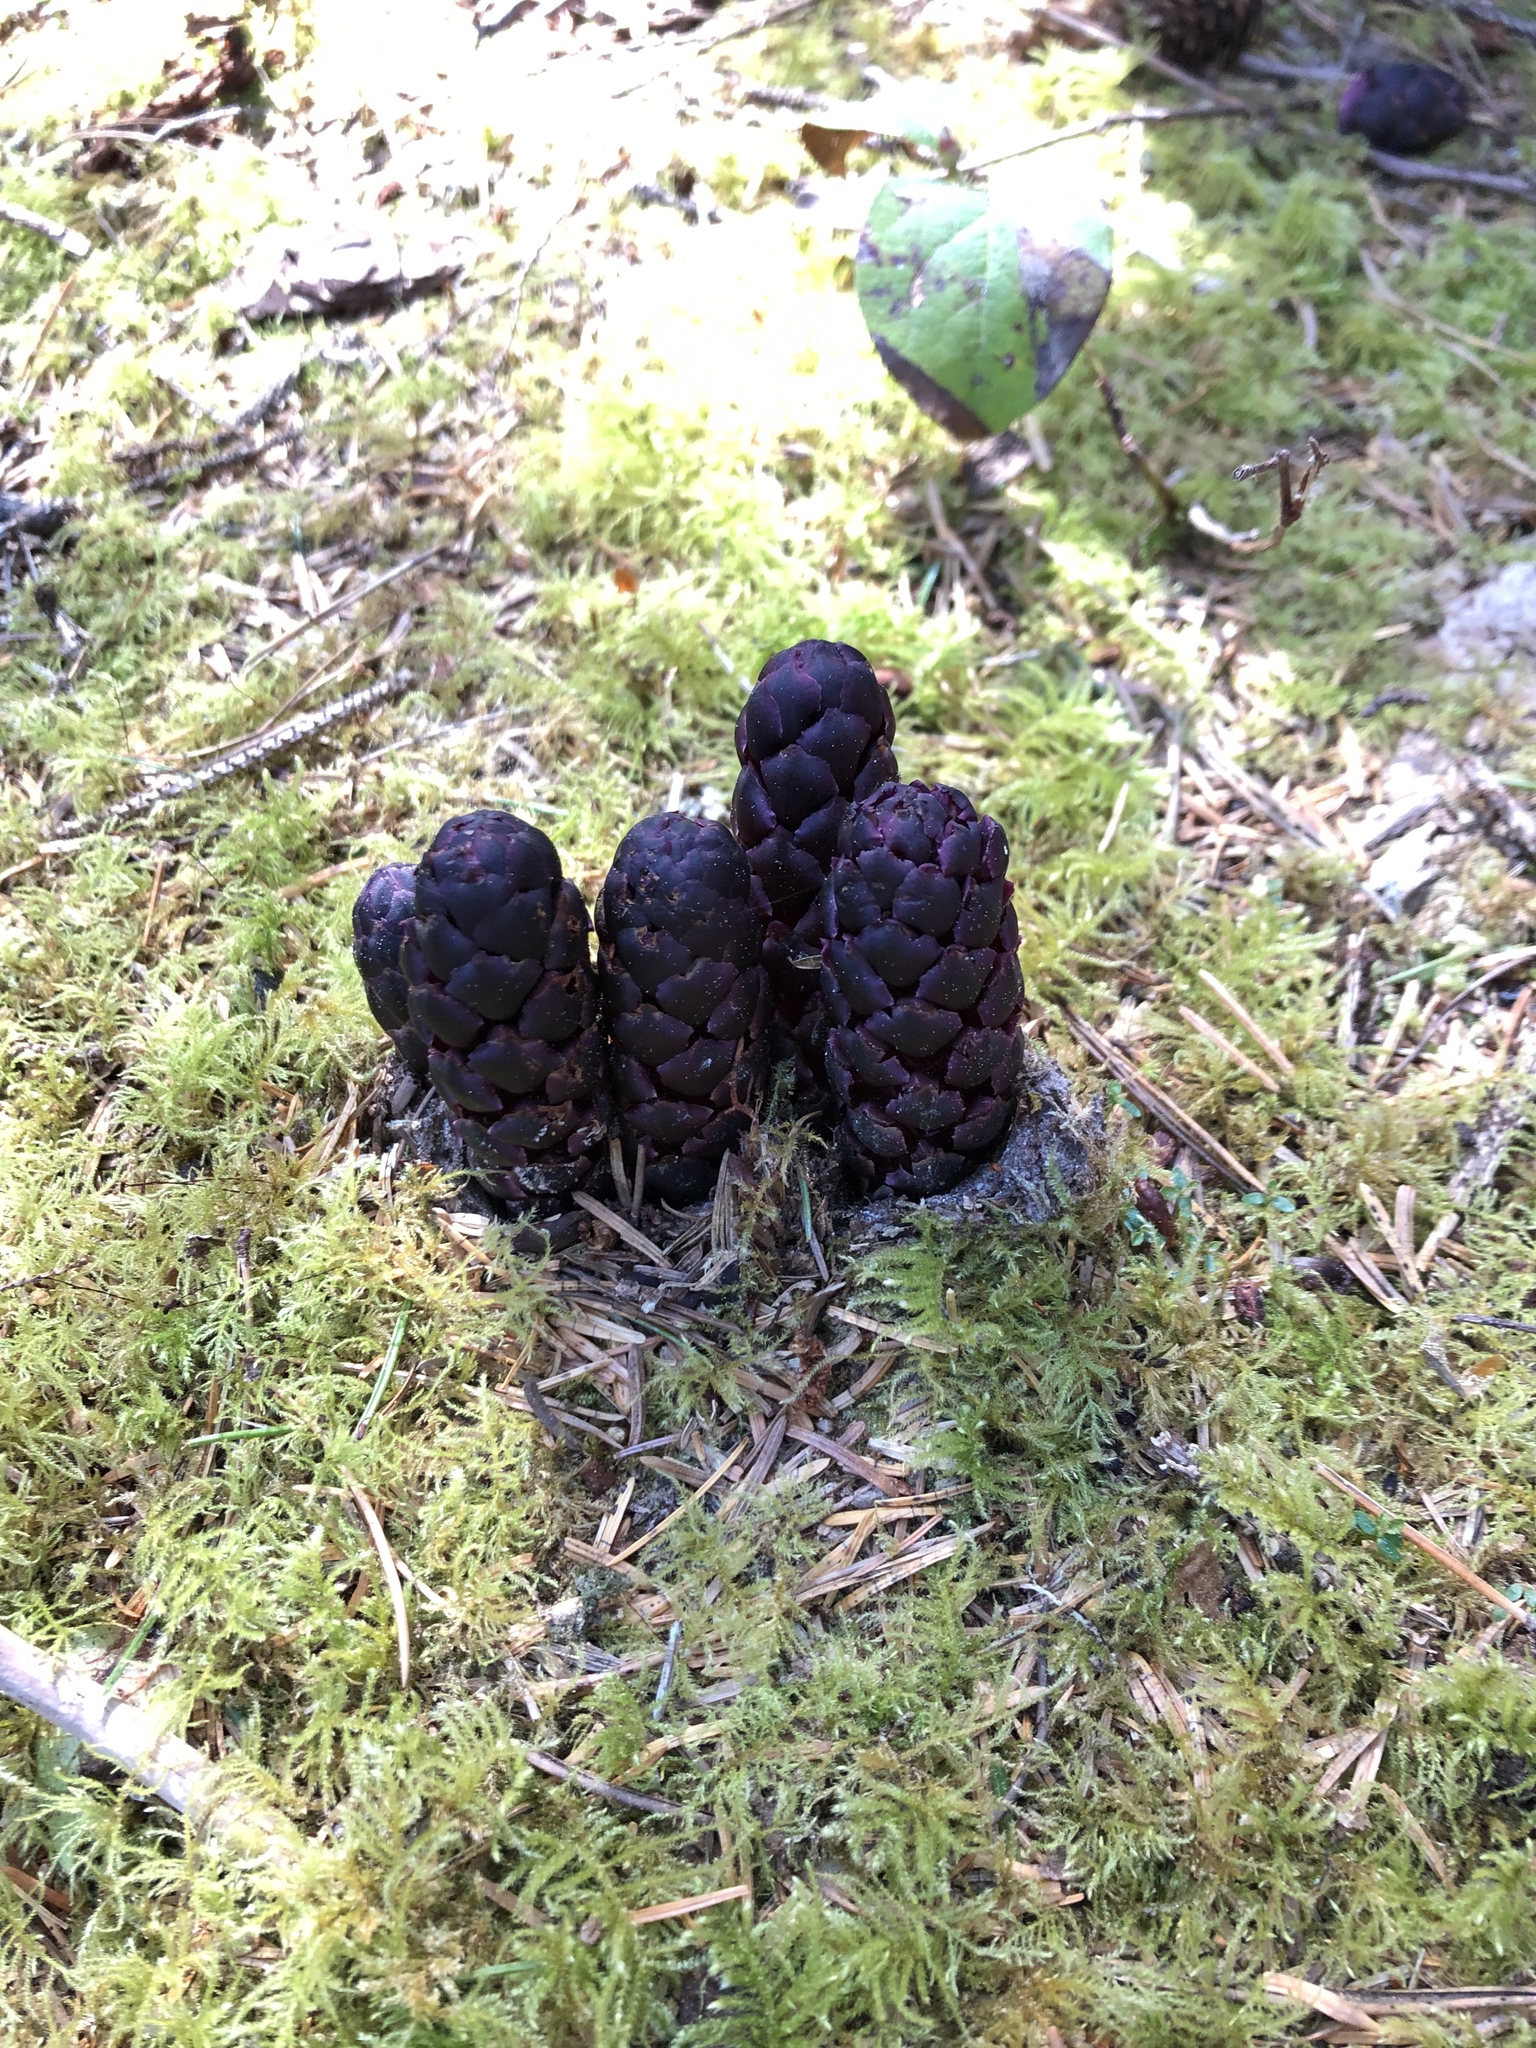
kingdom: Plantae
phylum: Tracheophyta
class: Magnoliopsida
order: Lamiales
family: Orobanchaceae
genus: Kopsiopsis
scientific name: Kopsiopsis hookeri
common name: Hooker's groundcone
